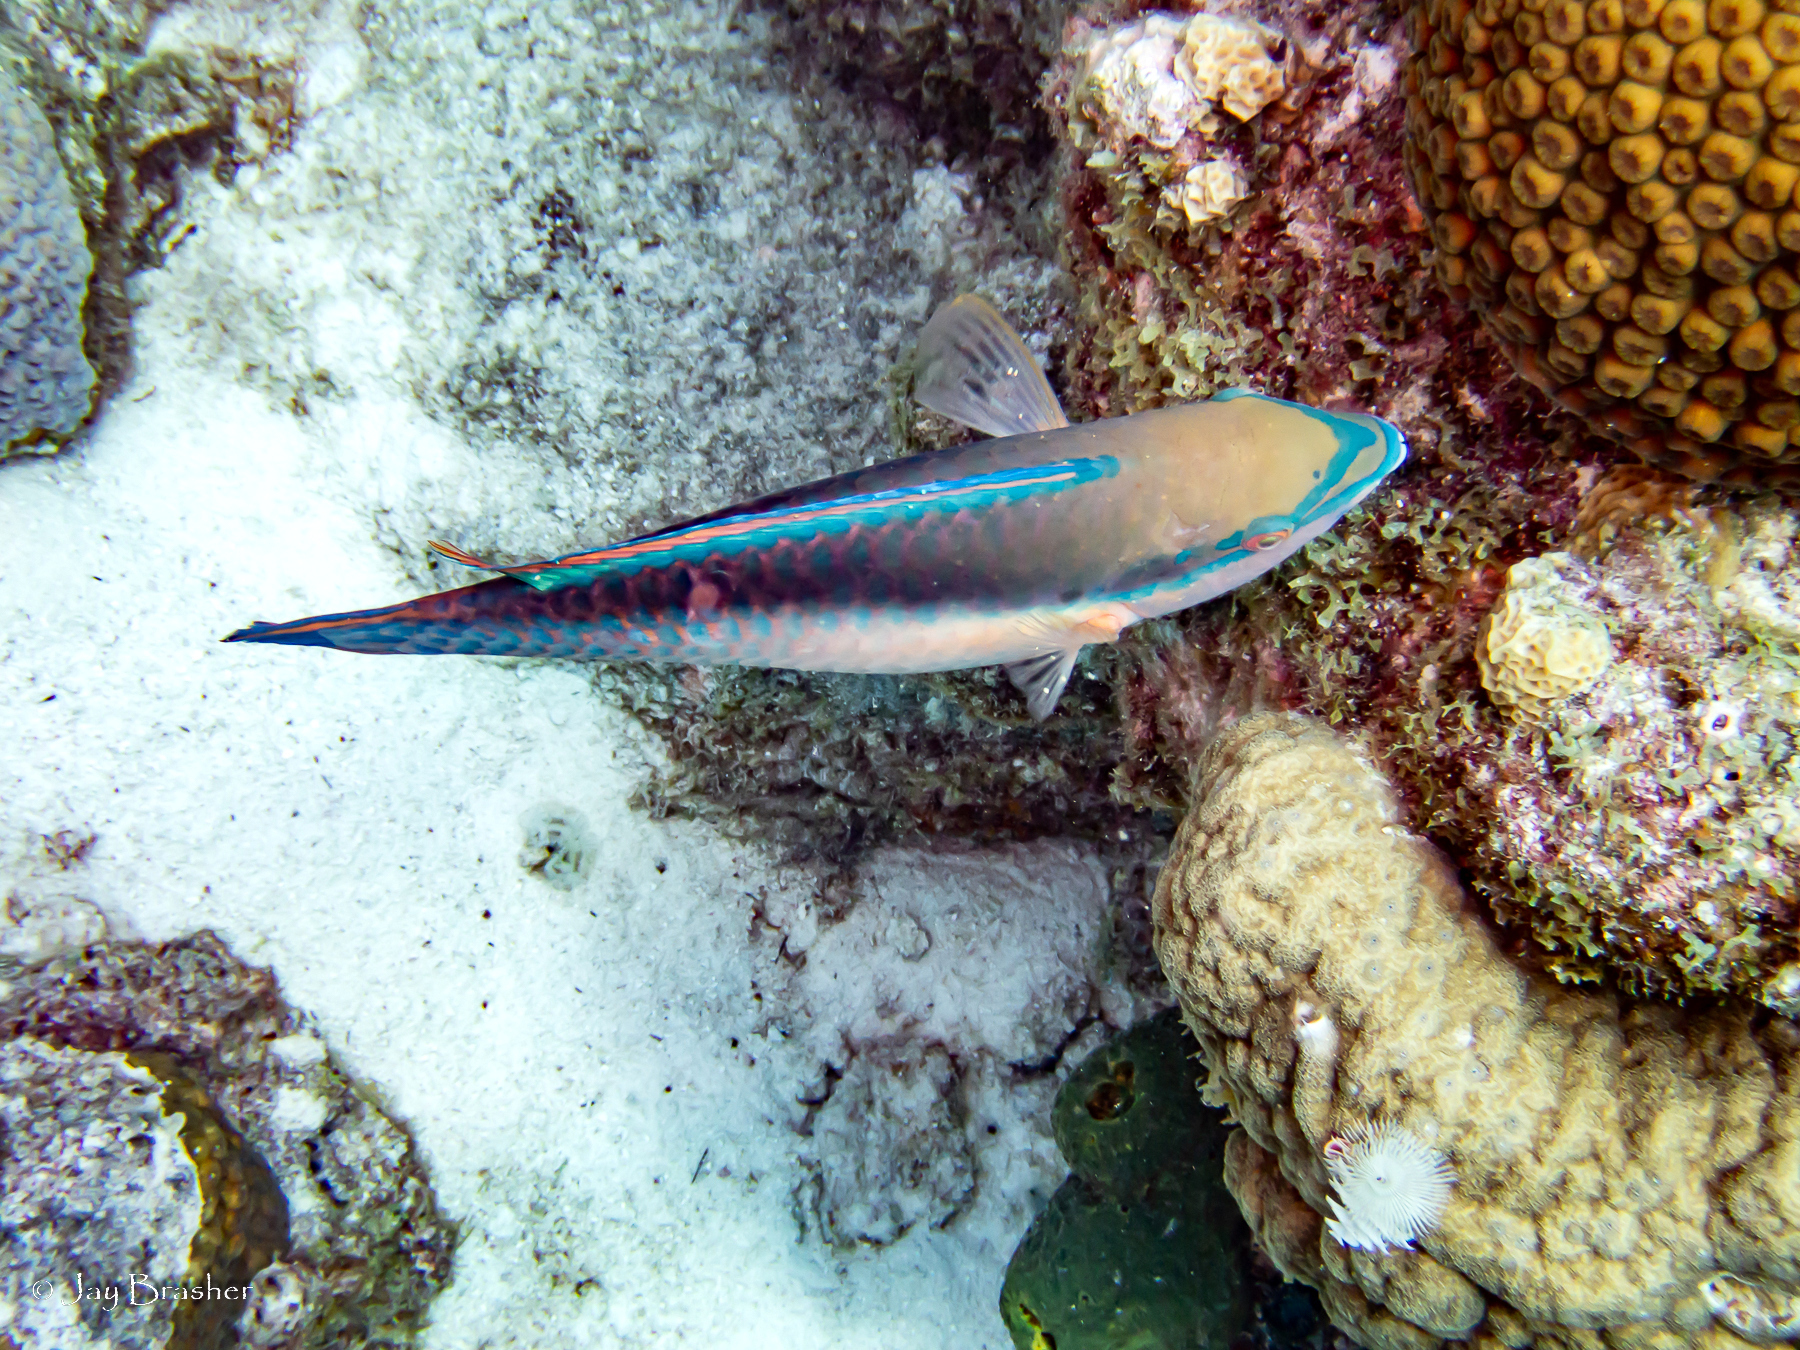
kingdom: Animalia
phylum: Chordata
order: Perciformes
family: Scaridae
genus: Scarus
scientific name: Scarus taeniopterus
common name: Princess parrotfish
